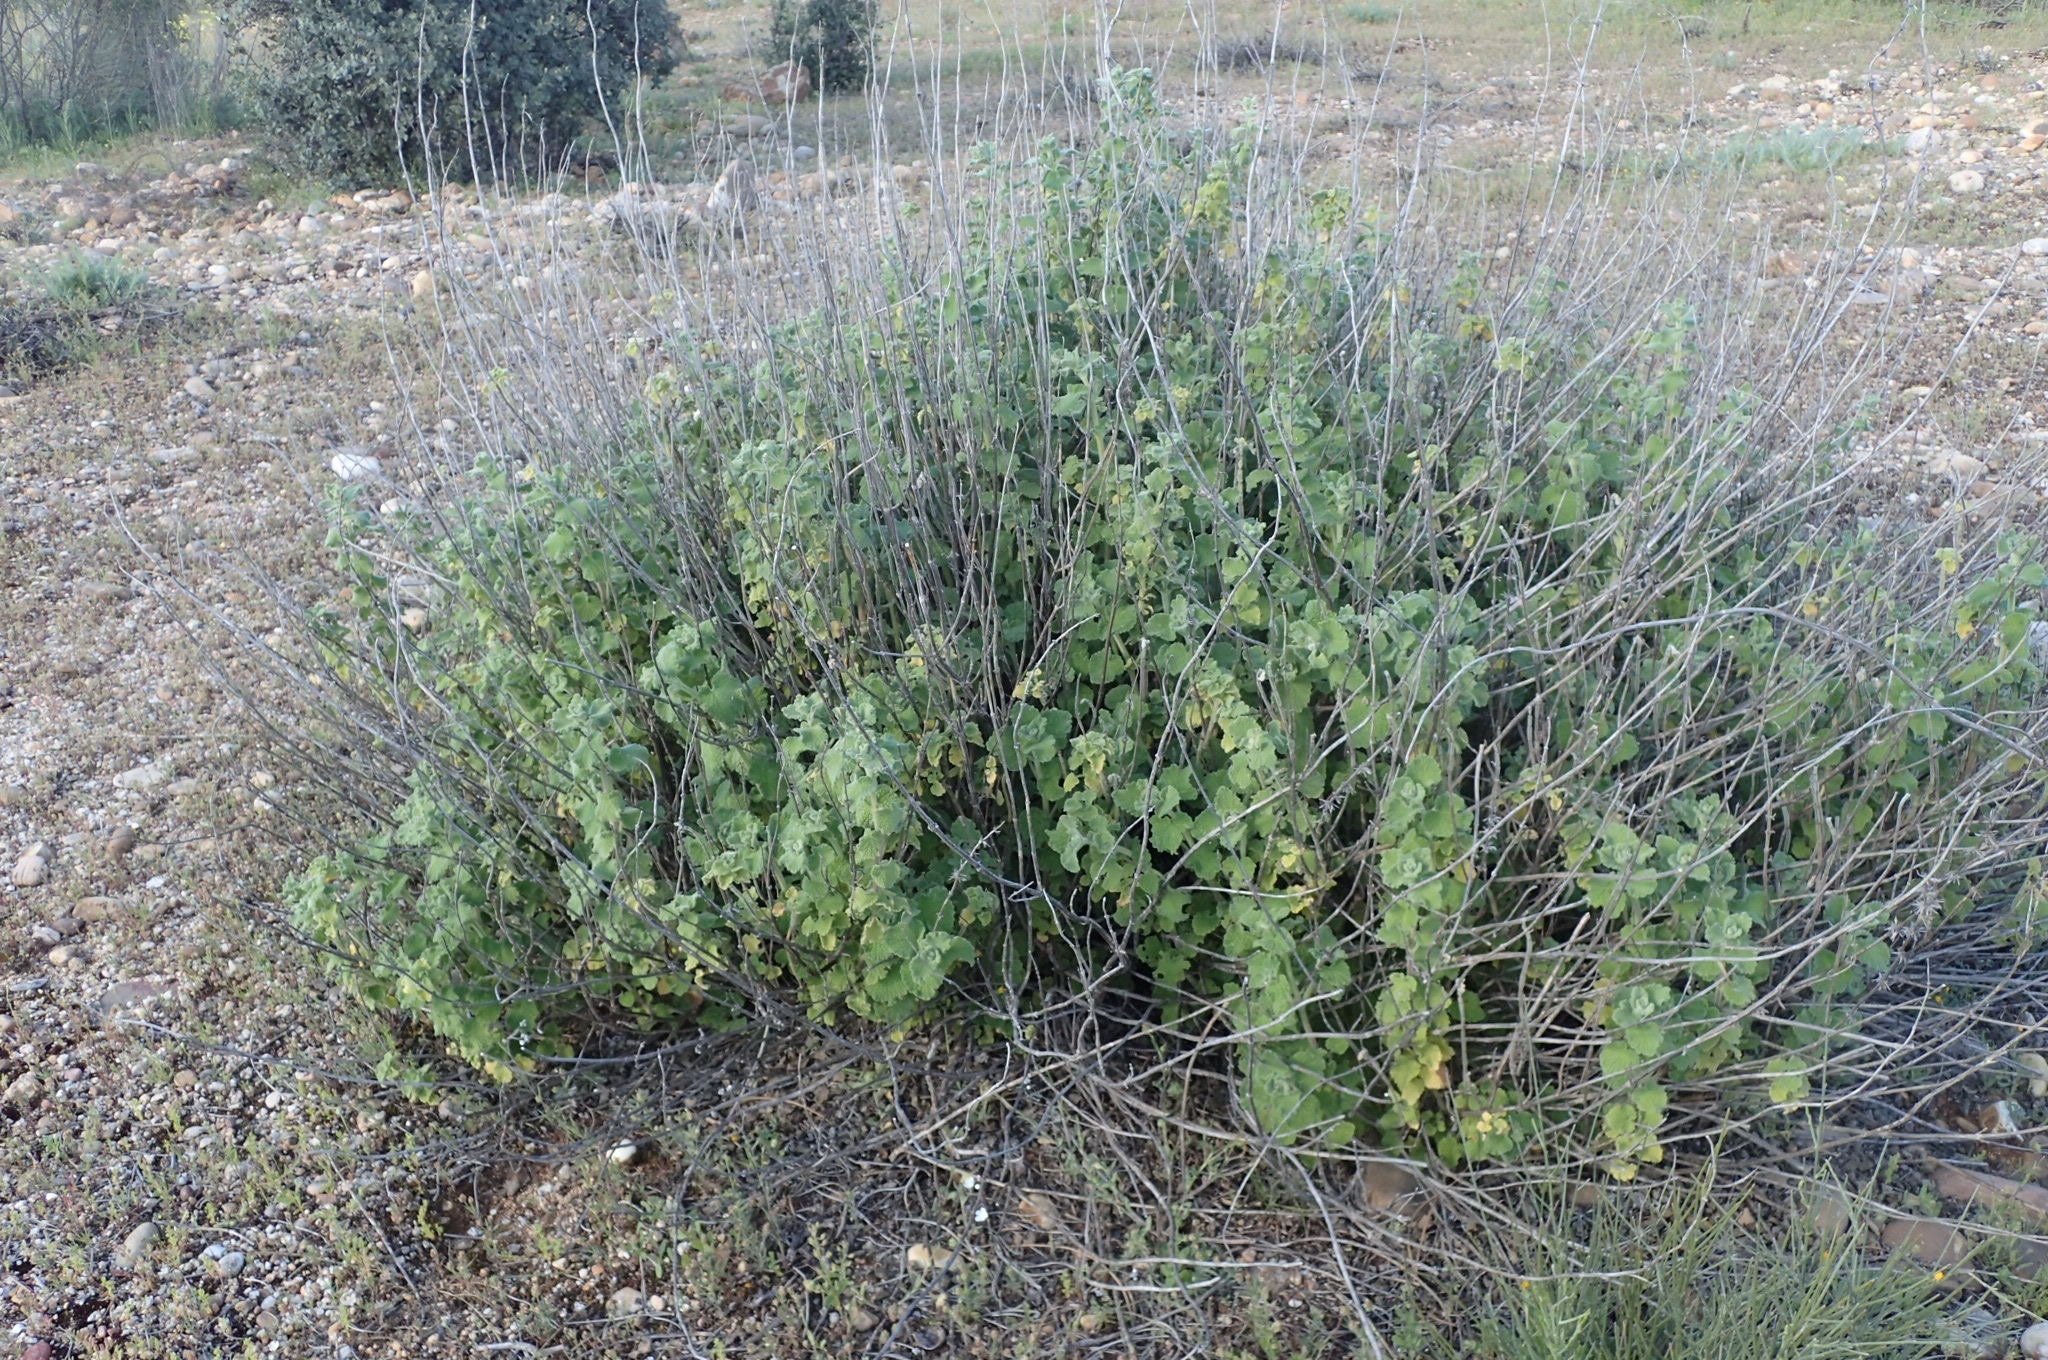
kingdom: Plantae
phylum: Tracheophyta
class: Magnoliopsida
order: Lamiales
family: Lamiaceae
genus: Pseudodictamnus
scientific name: Pseudodictamnus hirsutus
